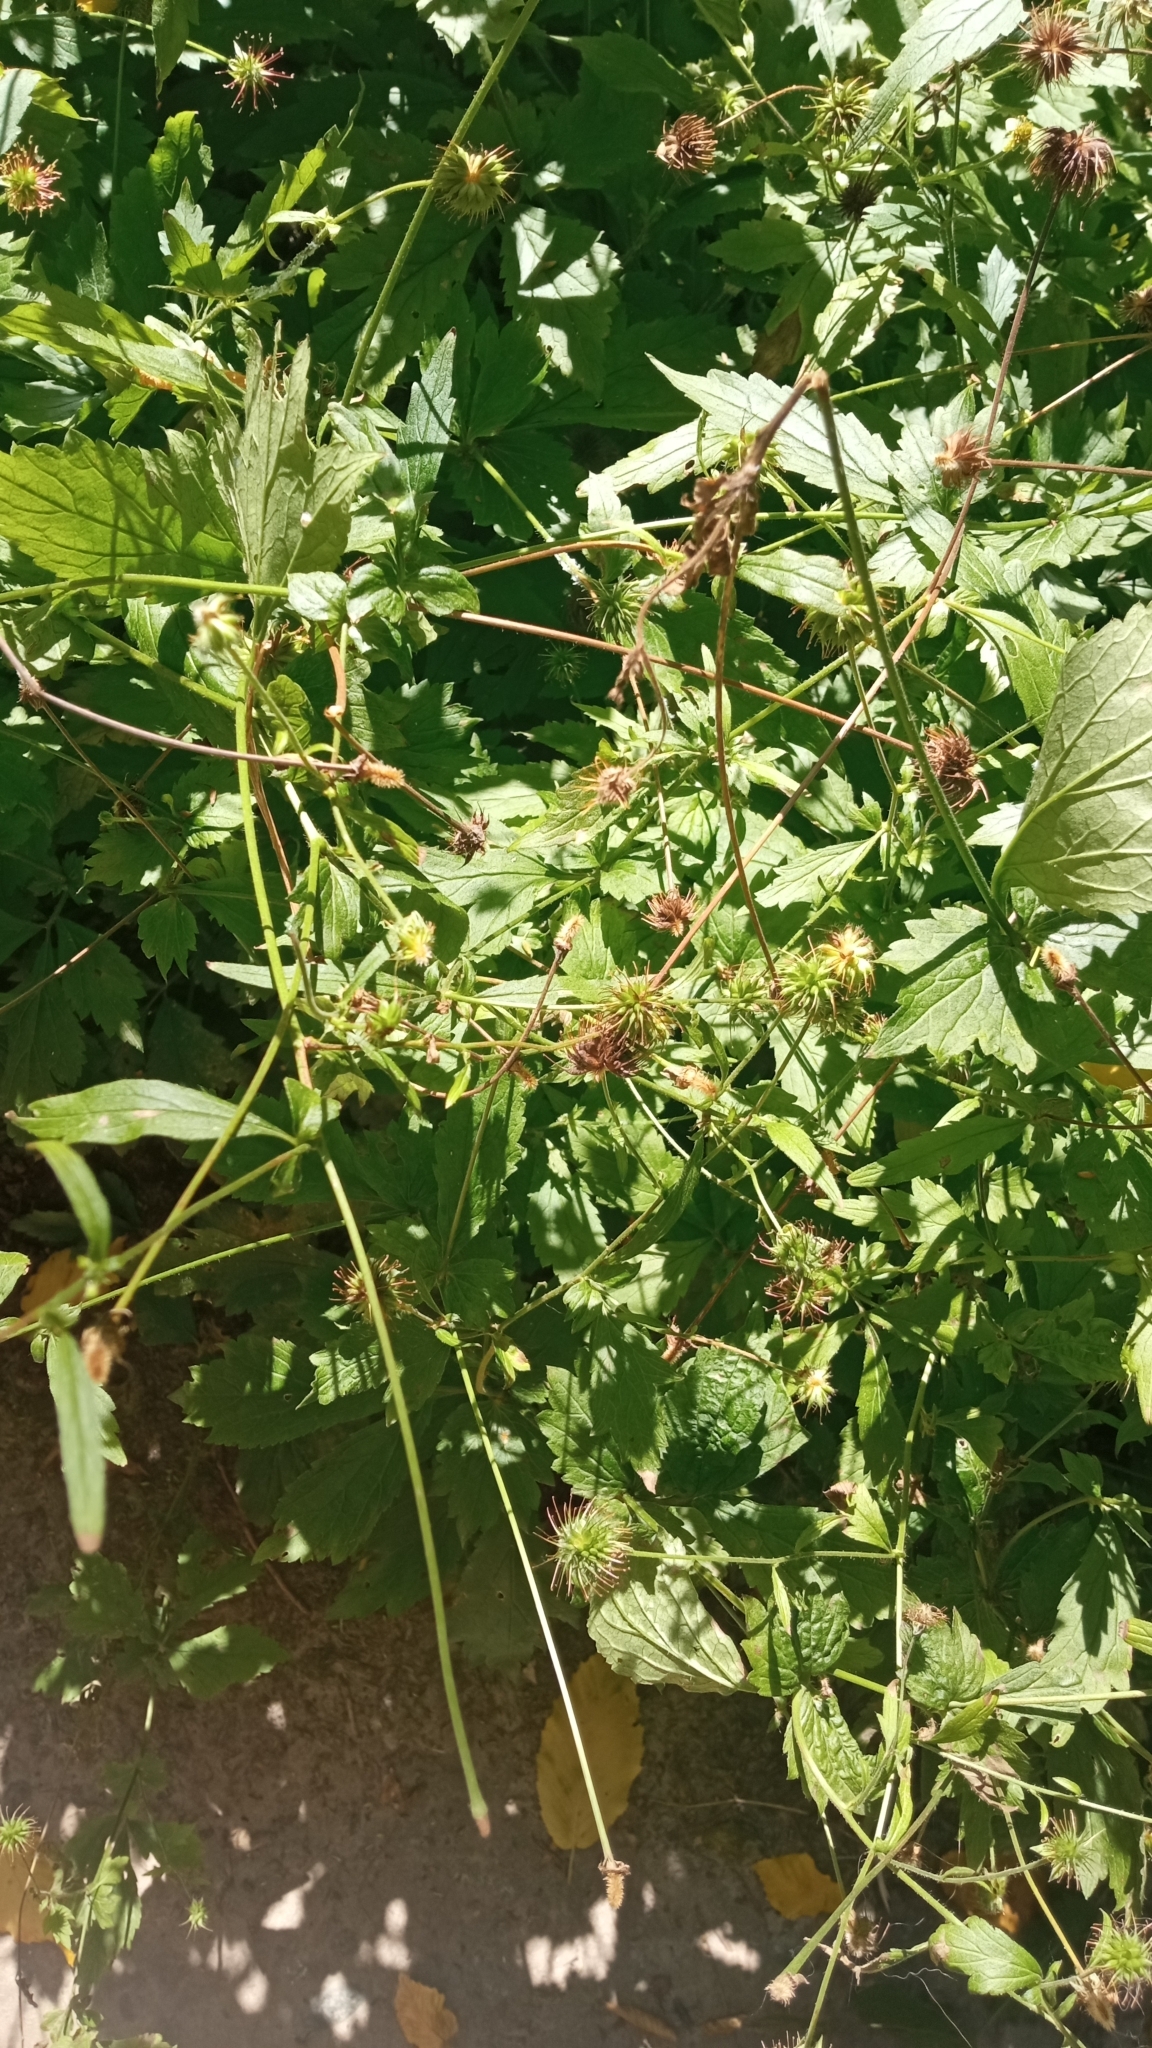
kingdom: Plantae
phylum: Tracheophyta
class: Magnoliopsida
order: Rosales
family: Rosaceae
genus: Geum
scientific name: Geum urbanum
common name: Wood avens
